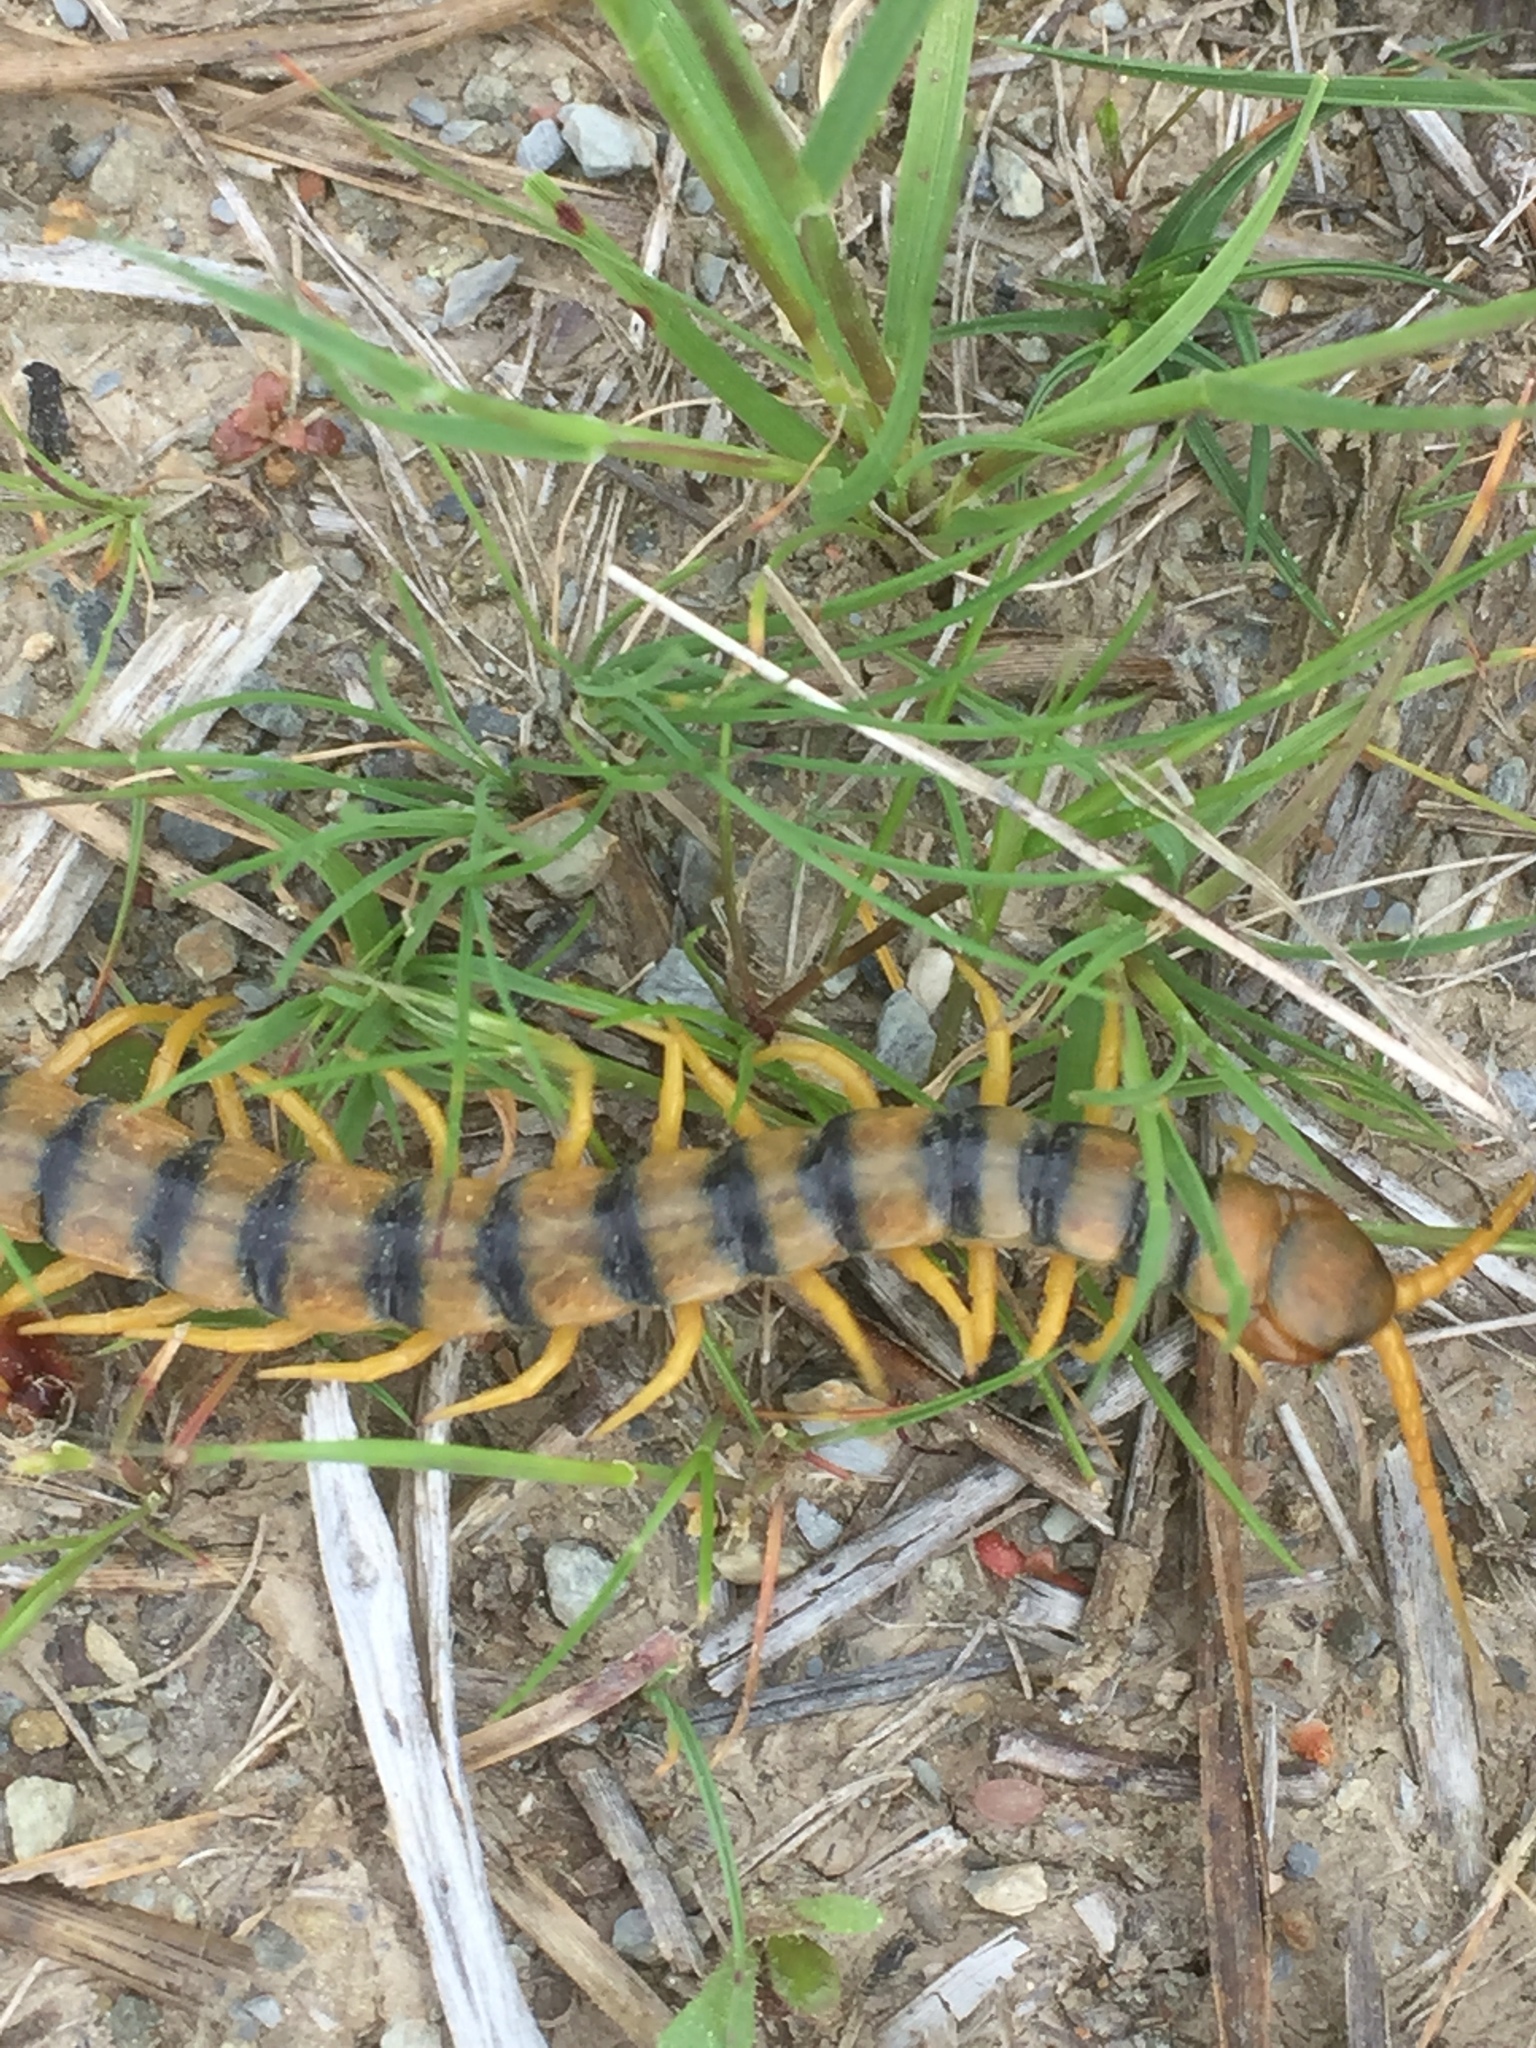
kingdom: Animalia
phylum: Arthropoda
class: Chilopoda
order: Scolopendromorpha
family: Scolopendridae
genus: Scolopendra
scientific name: Scolopendra cingulata
